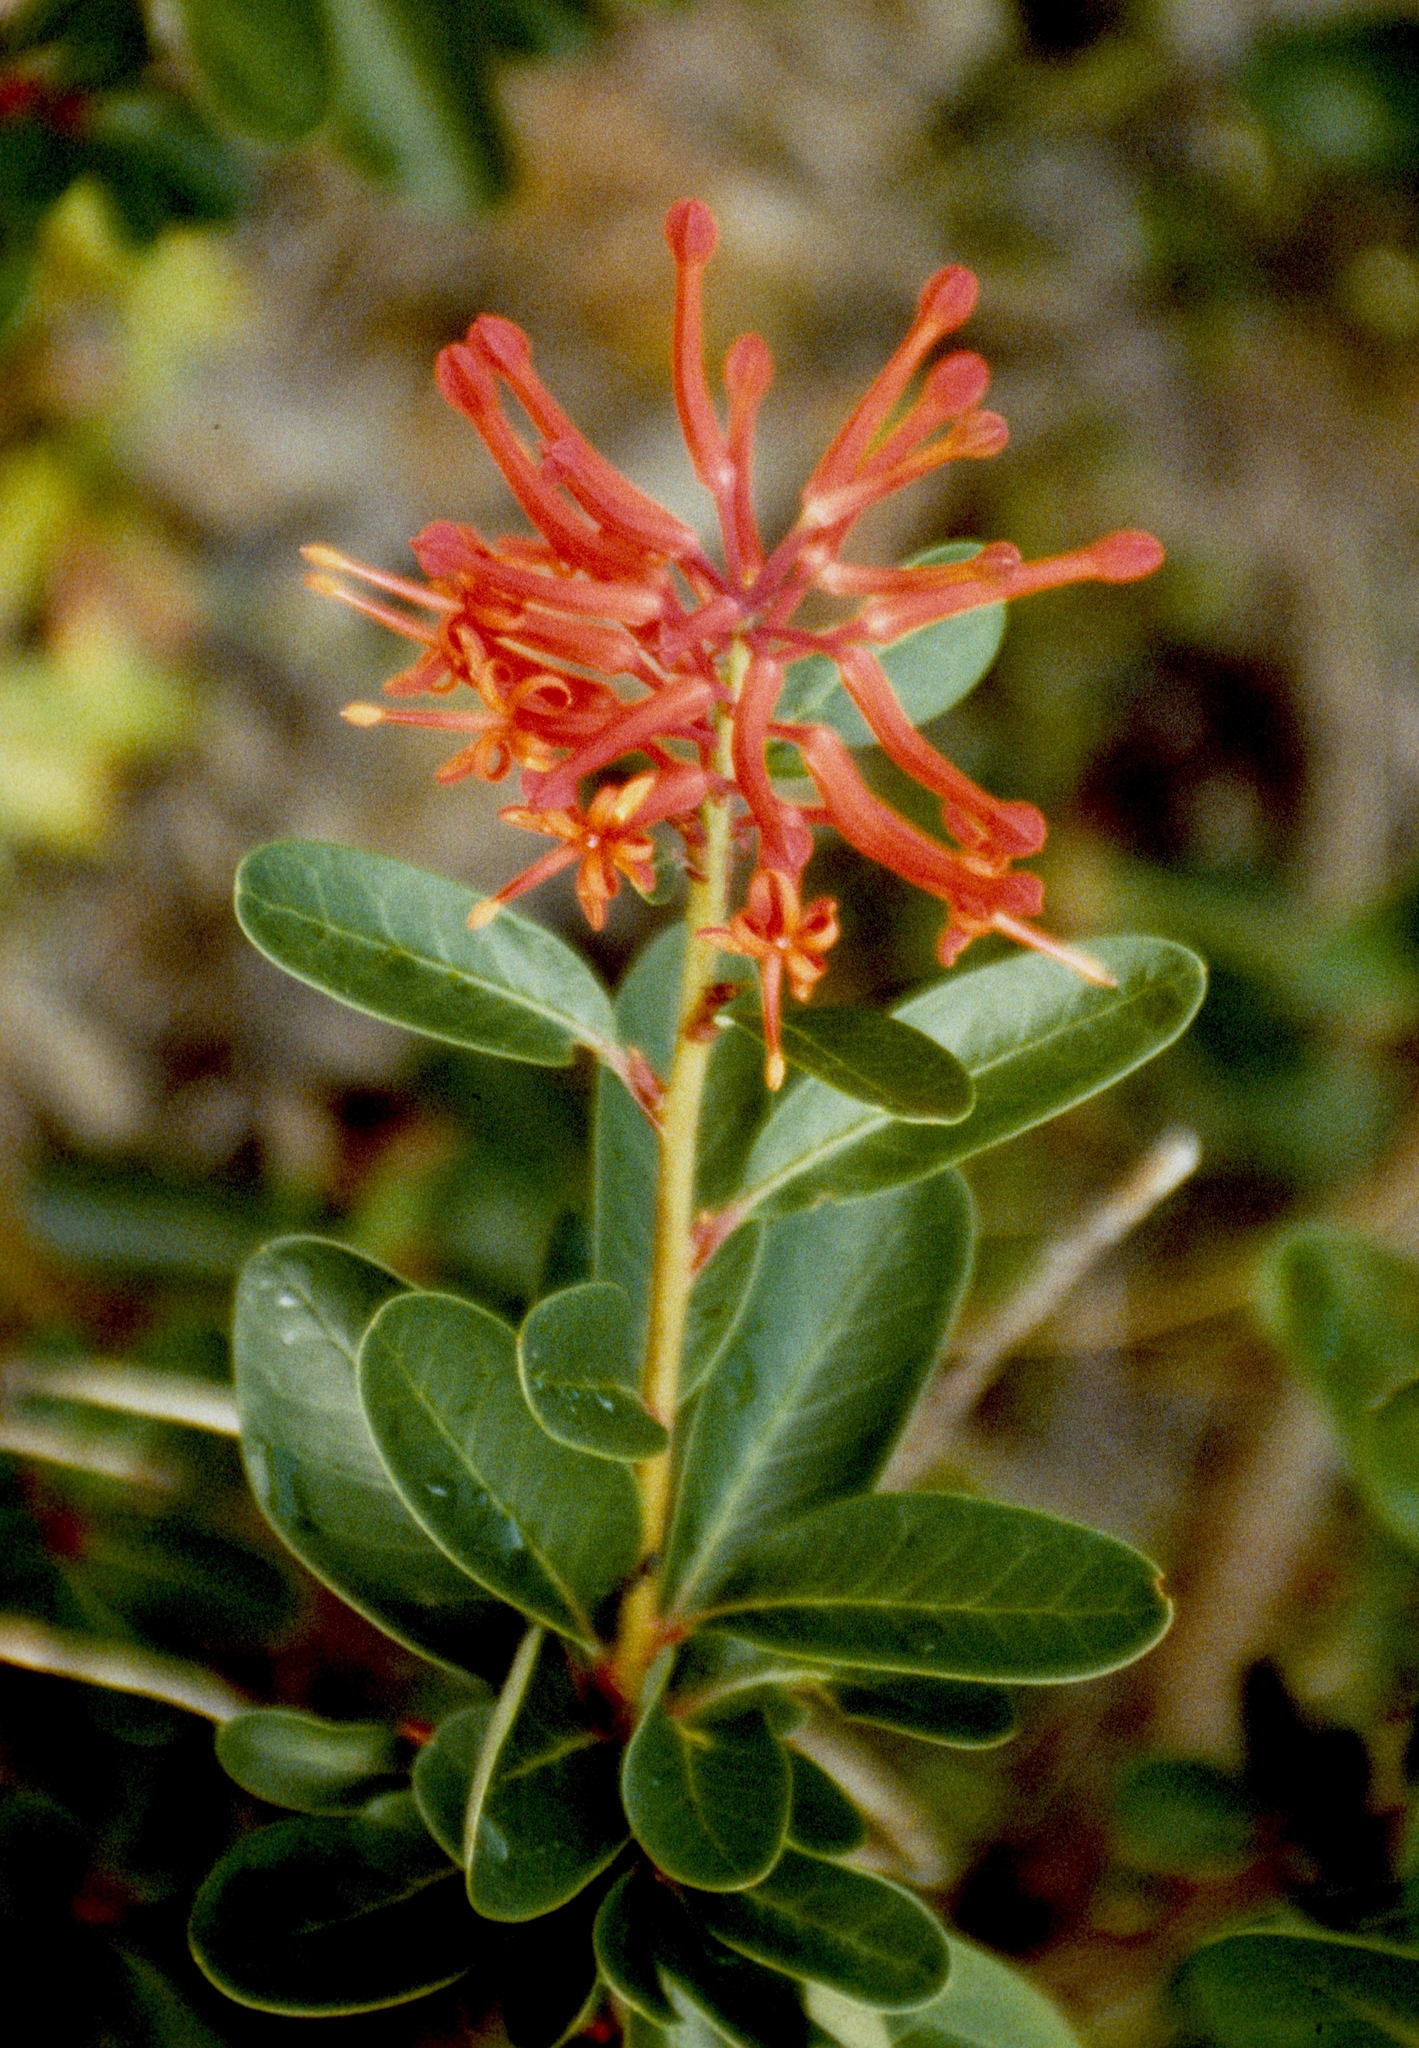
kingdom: Plantae
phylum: Tracheophyta
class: Magnoliopsida
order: Proteales
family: Proteaceae
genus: Embothrium
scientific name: Embothrium coccineum
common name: Chilean firebush
